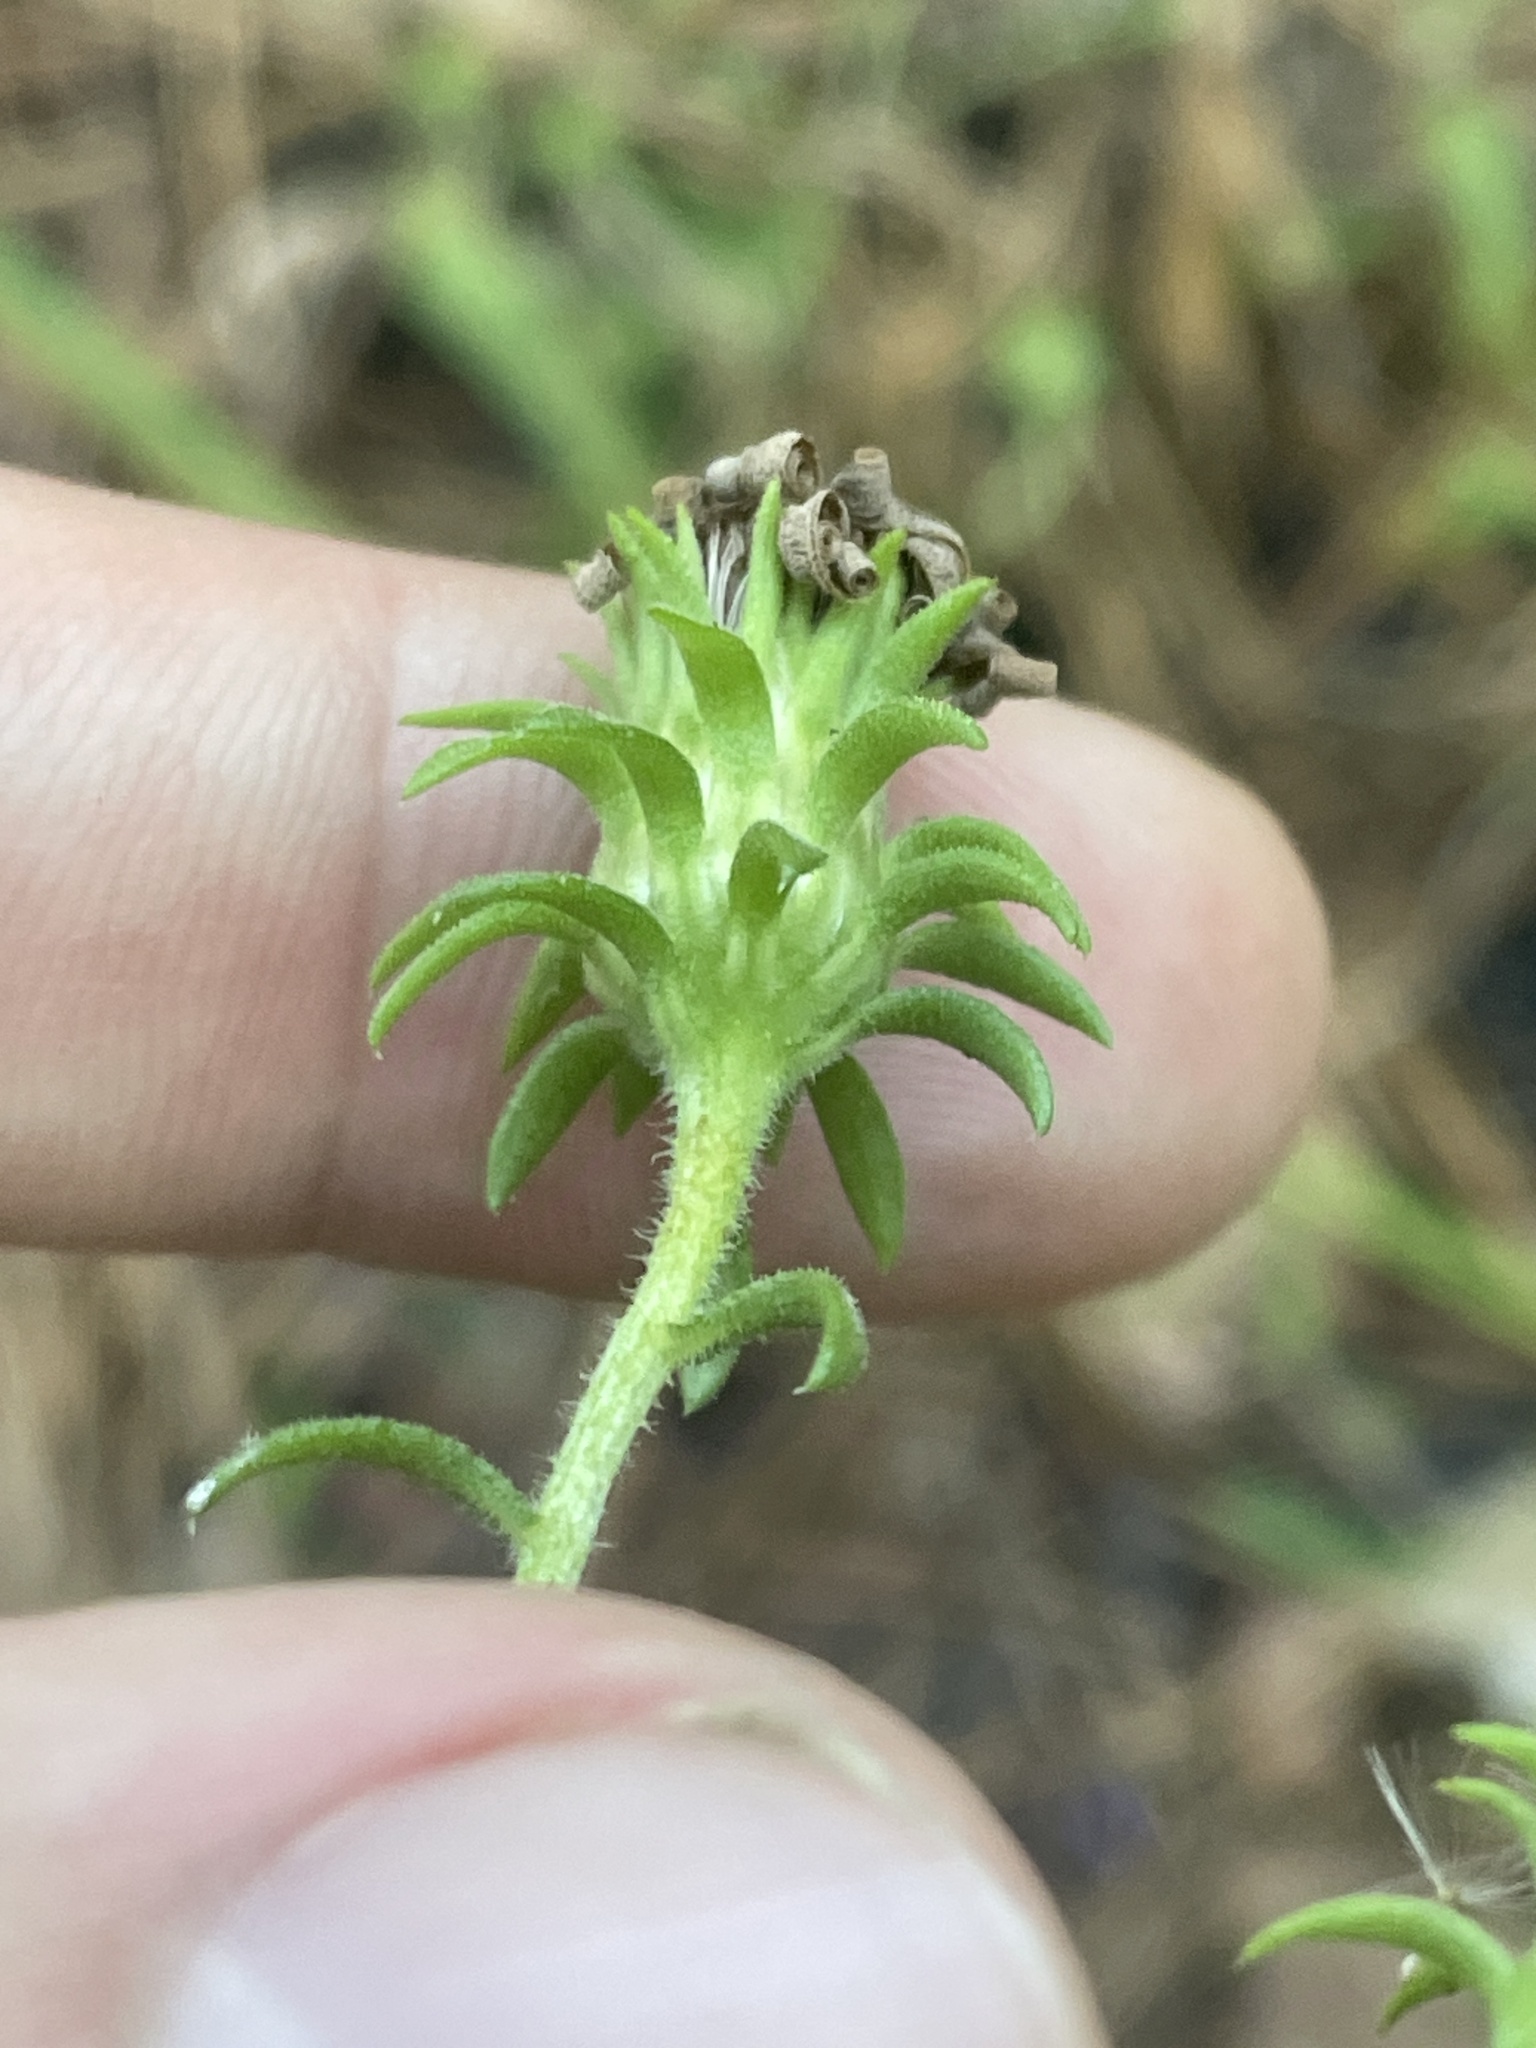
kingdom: Plantae
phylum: Tracheophyta
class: Magnoliopsida
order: Asterales
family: Asteraceae
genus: Symphyotrichum
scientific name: Symphyotrichum grandiflorum
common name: Big-head aster
